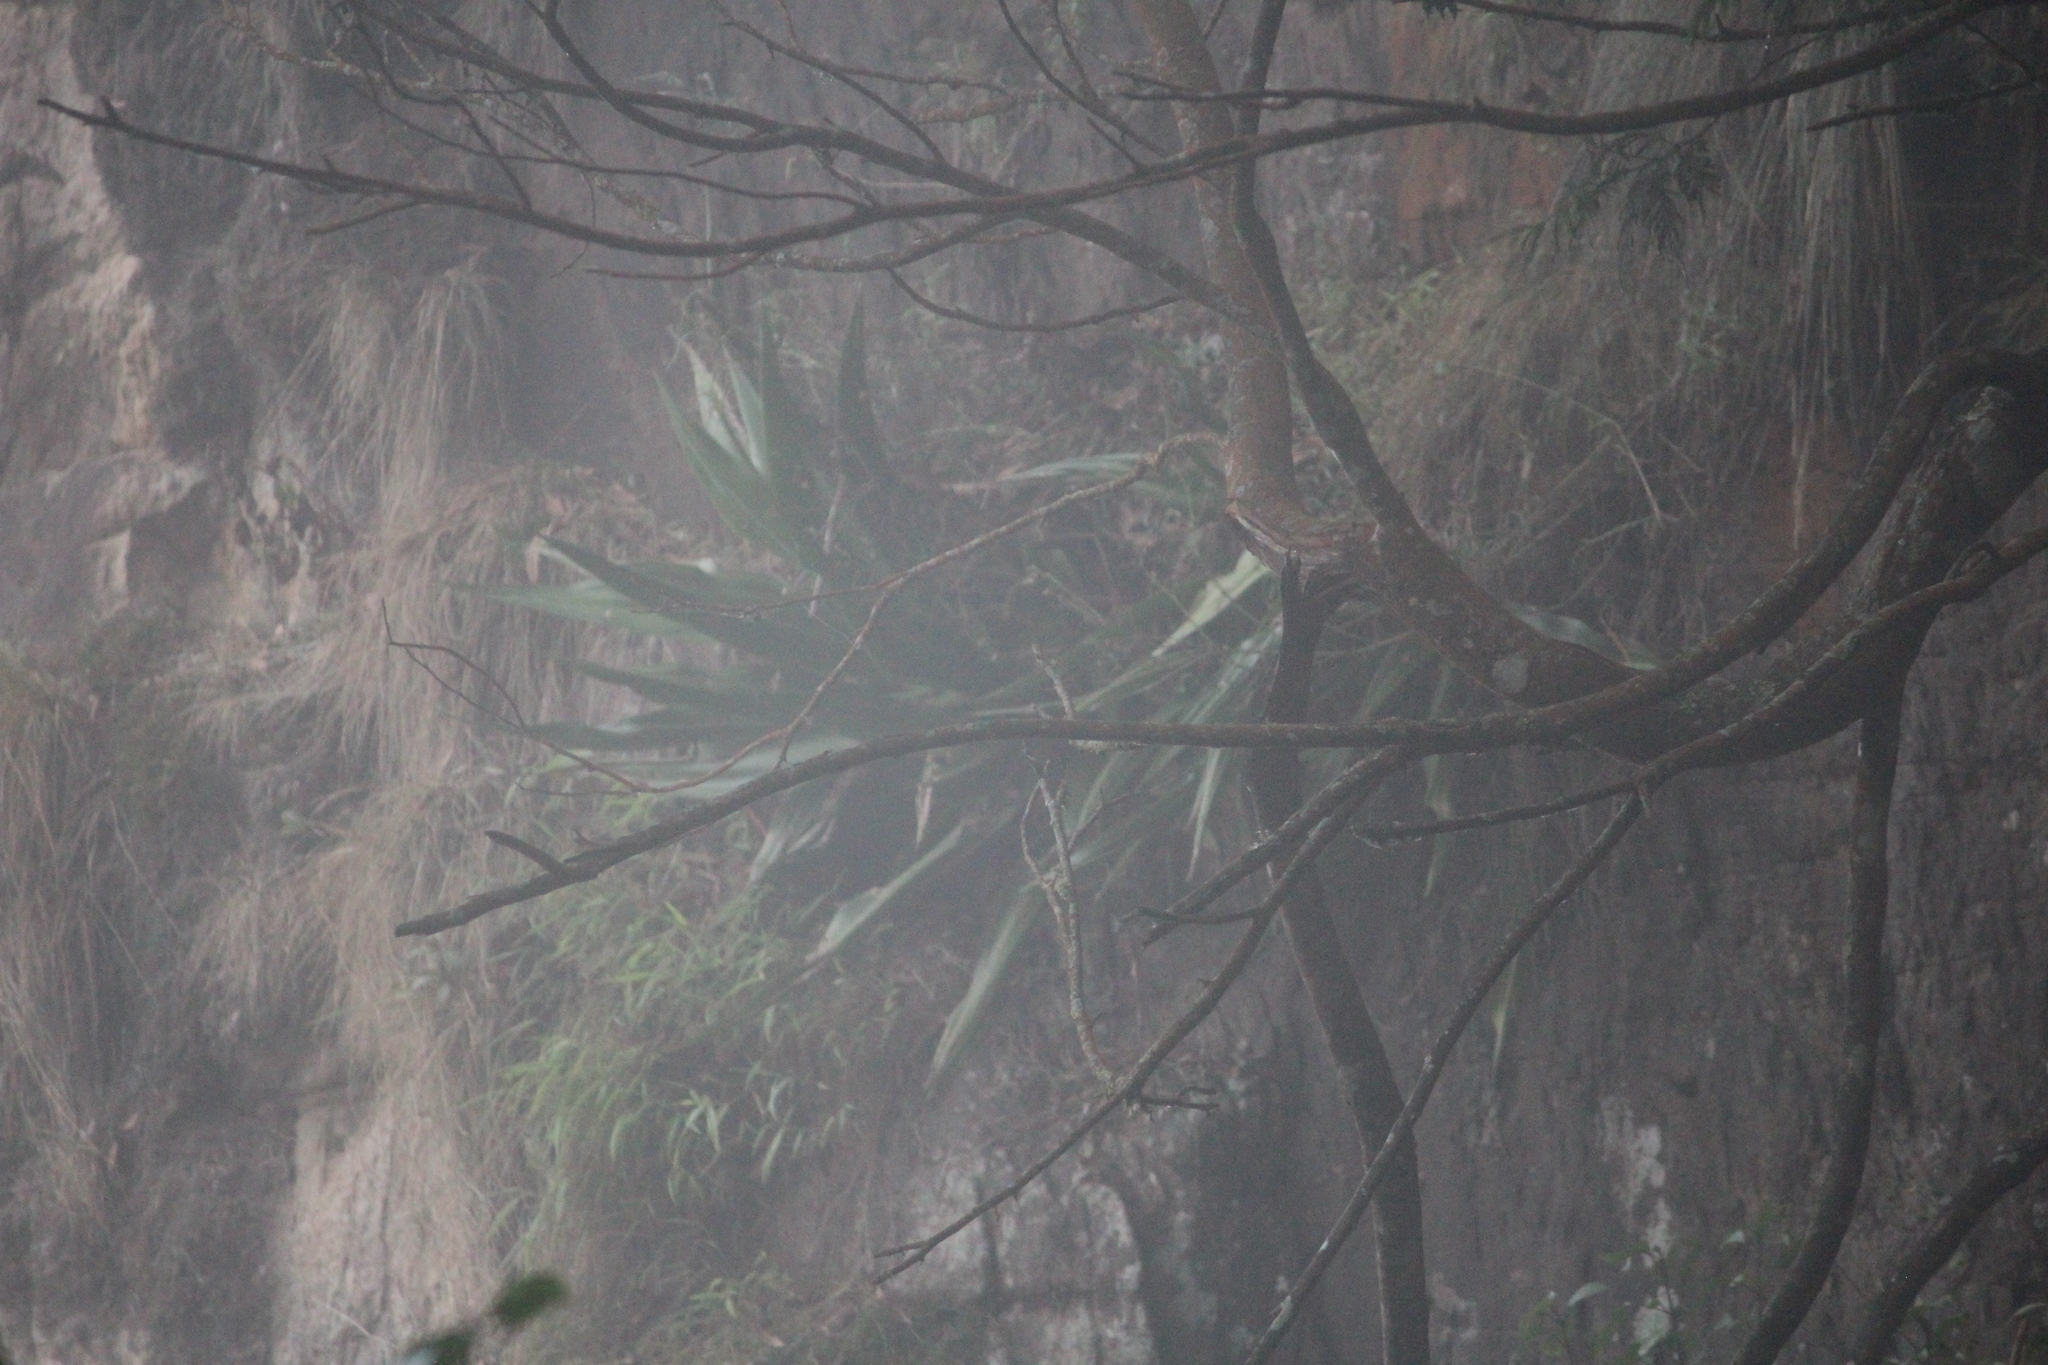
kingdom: Plantae
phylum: Tracheophyta
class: Liliopsida
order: Asparagales
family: Asparagaceae
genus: Furcraea
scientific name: Furcraea foetida
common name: Mauritius hemp
